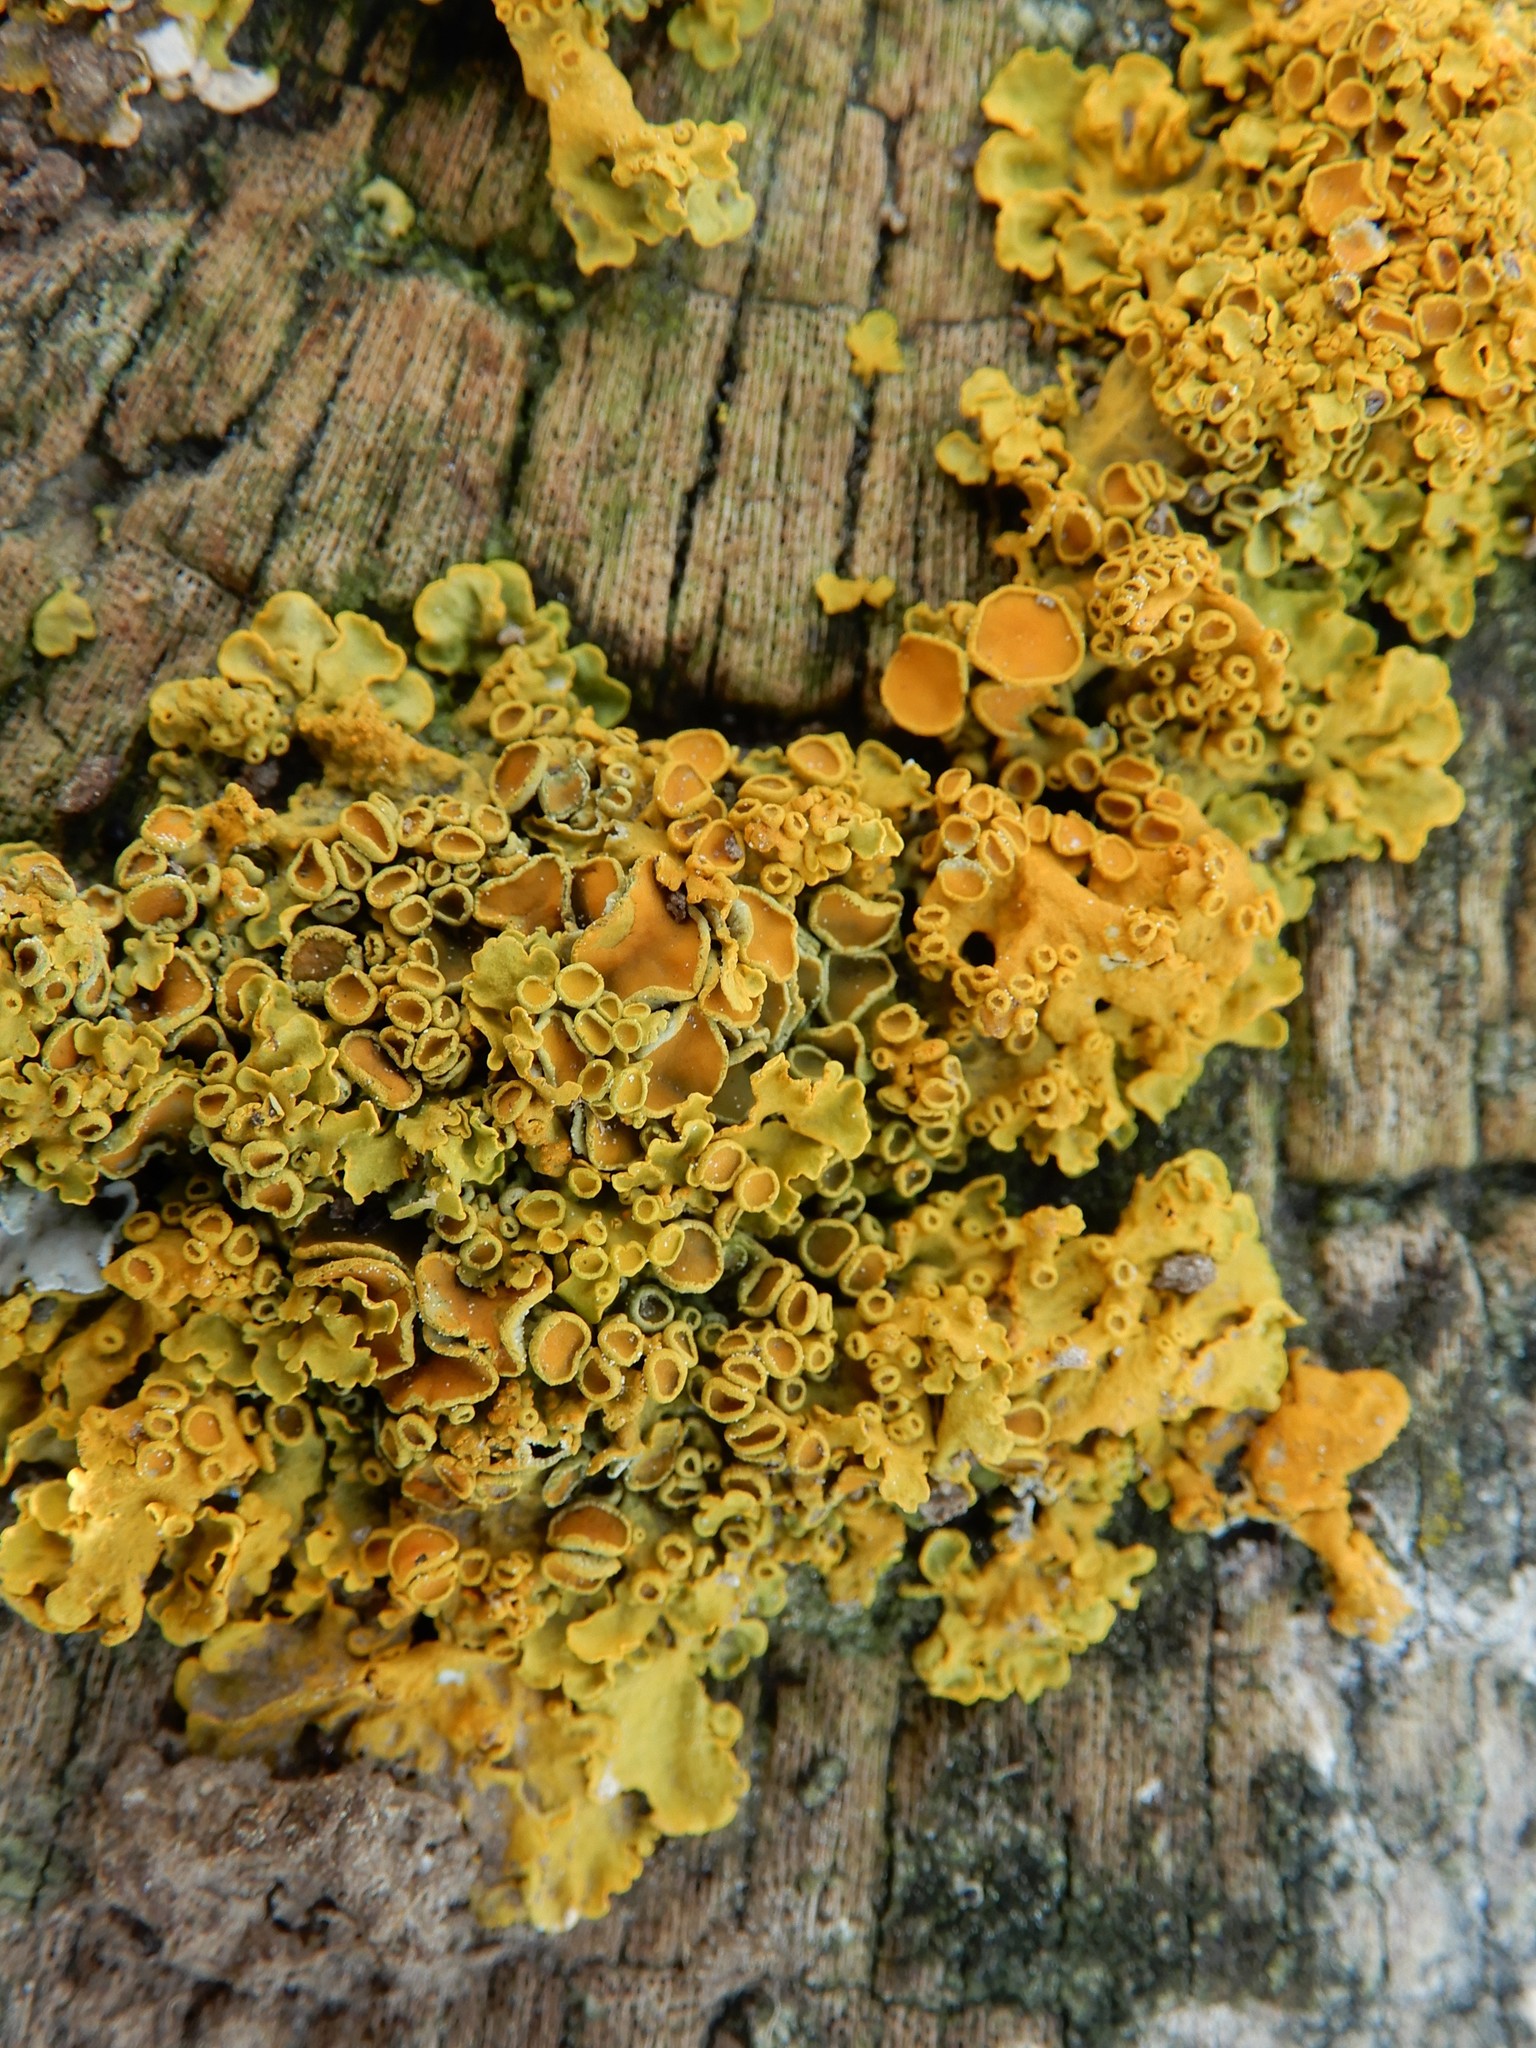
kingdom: Fungi
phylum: Ascomycota
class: Lecanoromycetes
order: Teloschistales
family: Teloschistaceae
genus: Xanthoria
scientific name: Xanthoria parietina
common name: Common orange lichen
